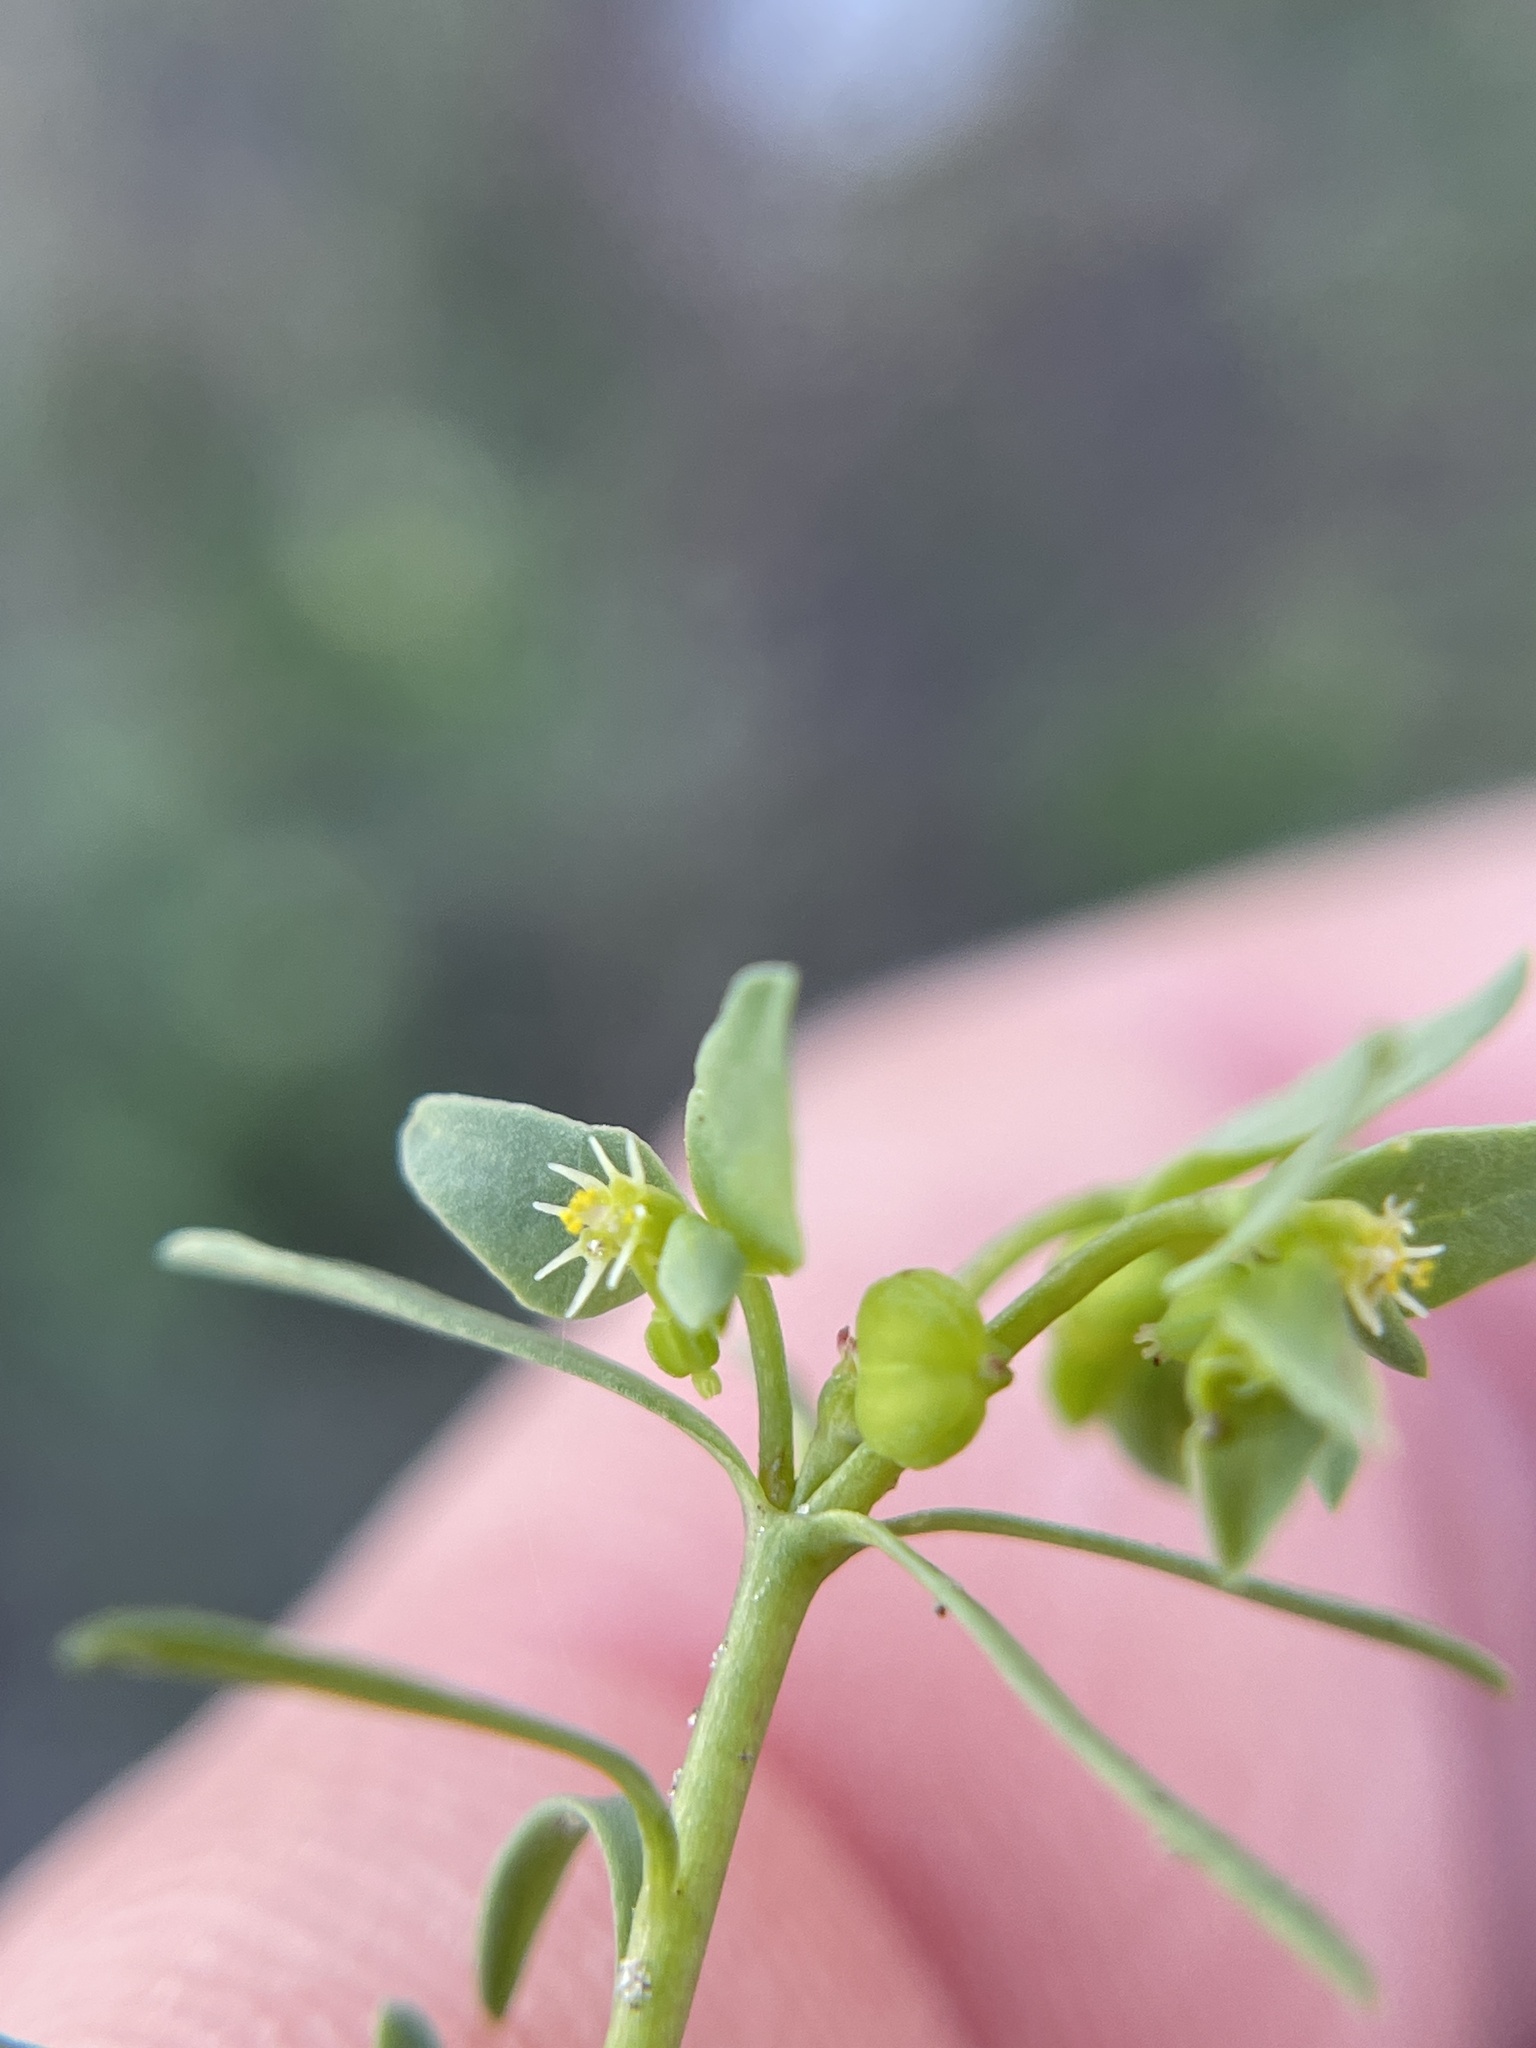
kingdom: Plantae
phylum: Tracheophyta
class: Magnoliopsida
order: Malpighiales
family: Euphorbiaceae
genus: Euphorbia
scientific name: Euphorbia peplidion
